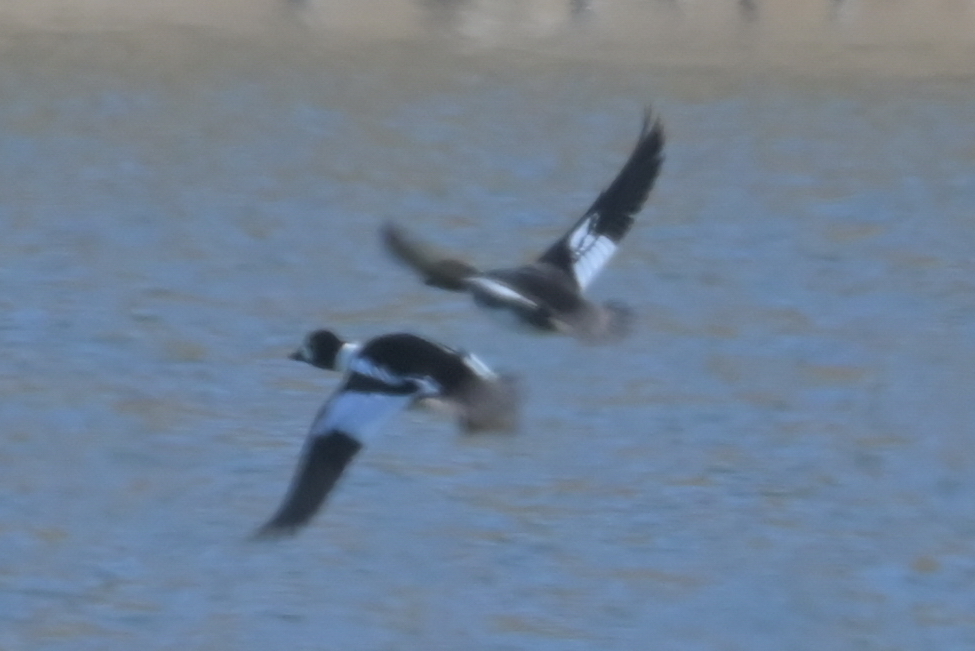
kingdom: Animalia
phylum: Chordata
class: Aves
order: Anseriformes
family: Anatidae
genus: Bucephala
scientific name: Bucephala clangula
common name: Common goldeneye
